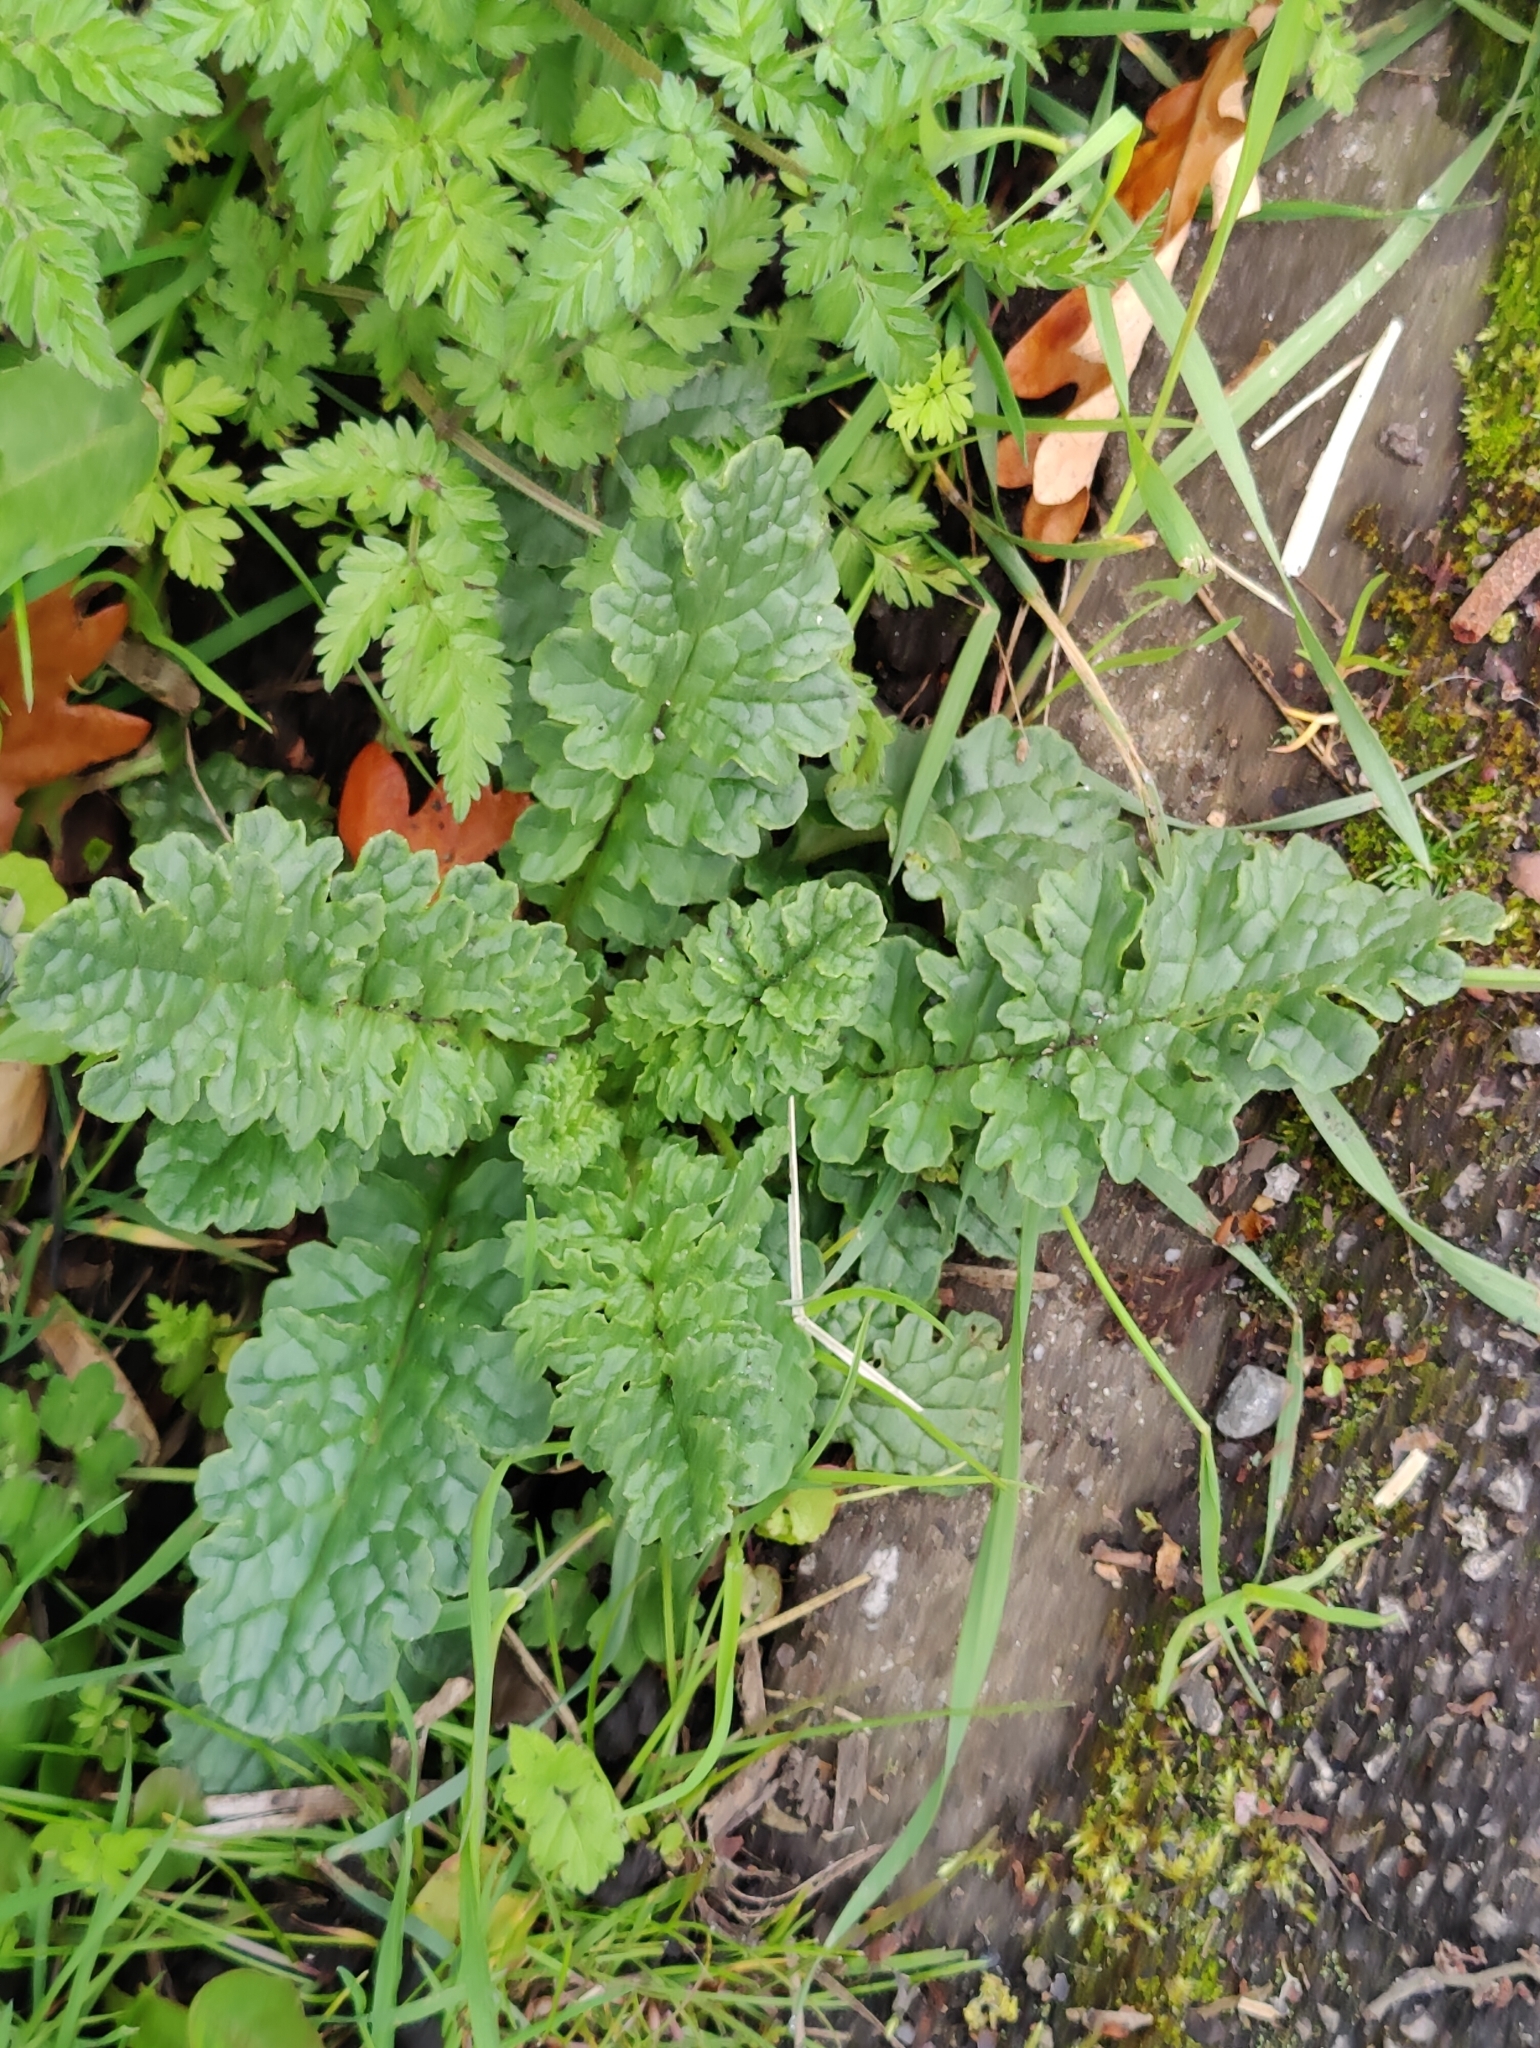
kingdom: Plantae
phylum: Tracheophyta
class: Magnoliopsida
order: Asterales
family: Asteraceae
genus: Jacobaea
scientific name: Jacobaea vulgaris
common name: Stinking willie
